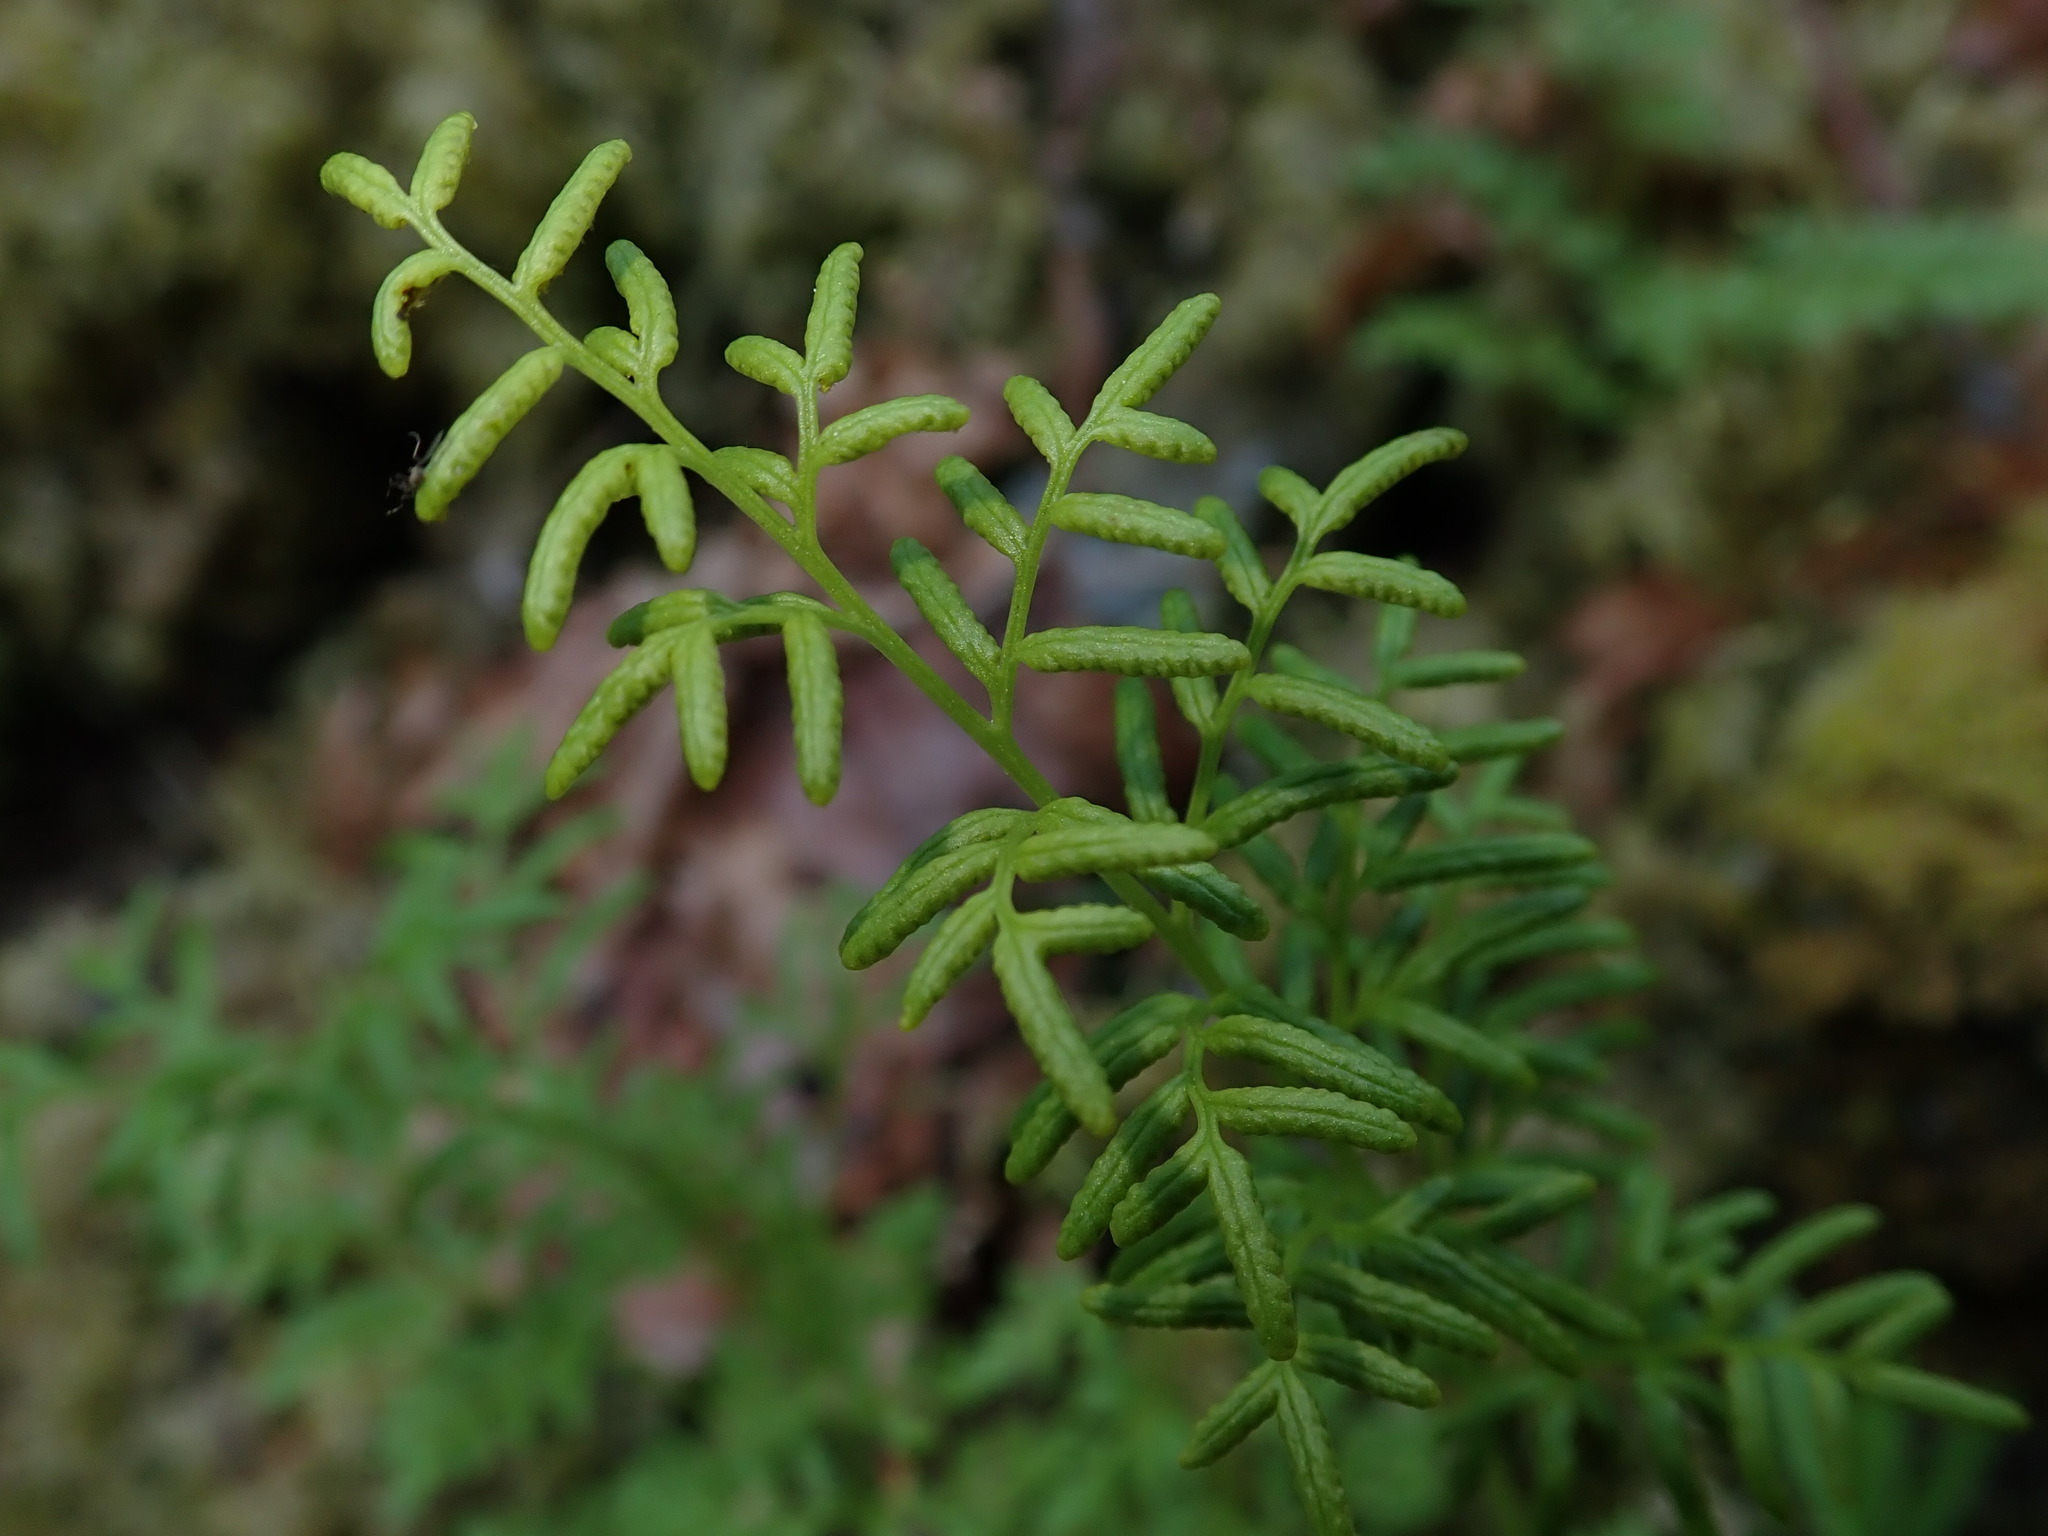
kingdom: Plantae
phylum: Tracheophyta
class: Polypodiopsida
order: Polypodiales
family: Pteridaceae
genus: Cryptogramma
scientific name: Cryptogramma acrostichoides
